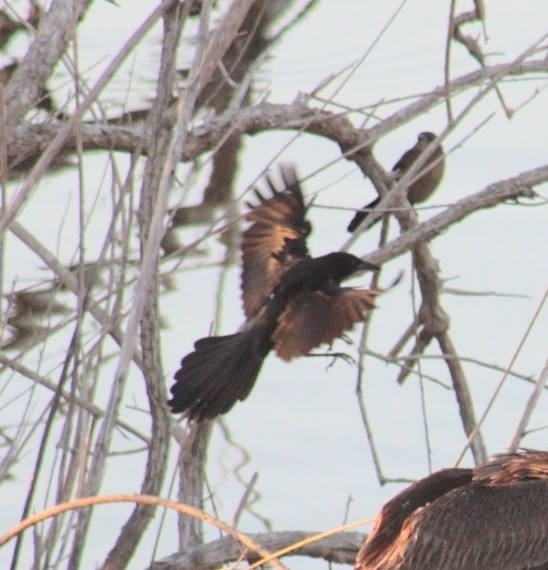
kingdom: Animalia
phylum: Chordata
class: Aves
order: Passeriformes
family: Icteridae
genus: Quiscalus
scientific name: Quiscalus mexicanus
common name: Great-tailed grackle
